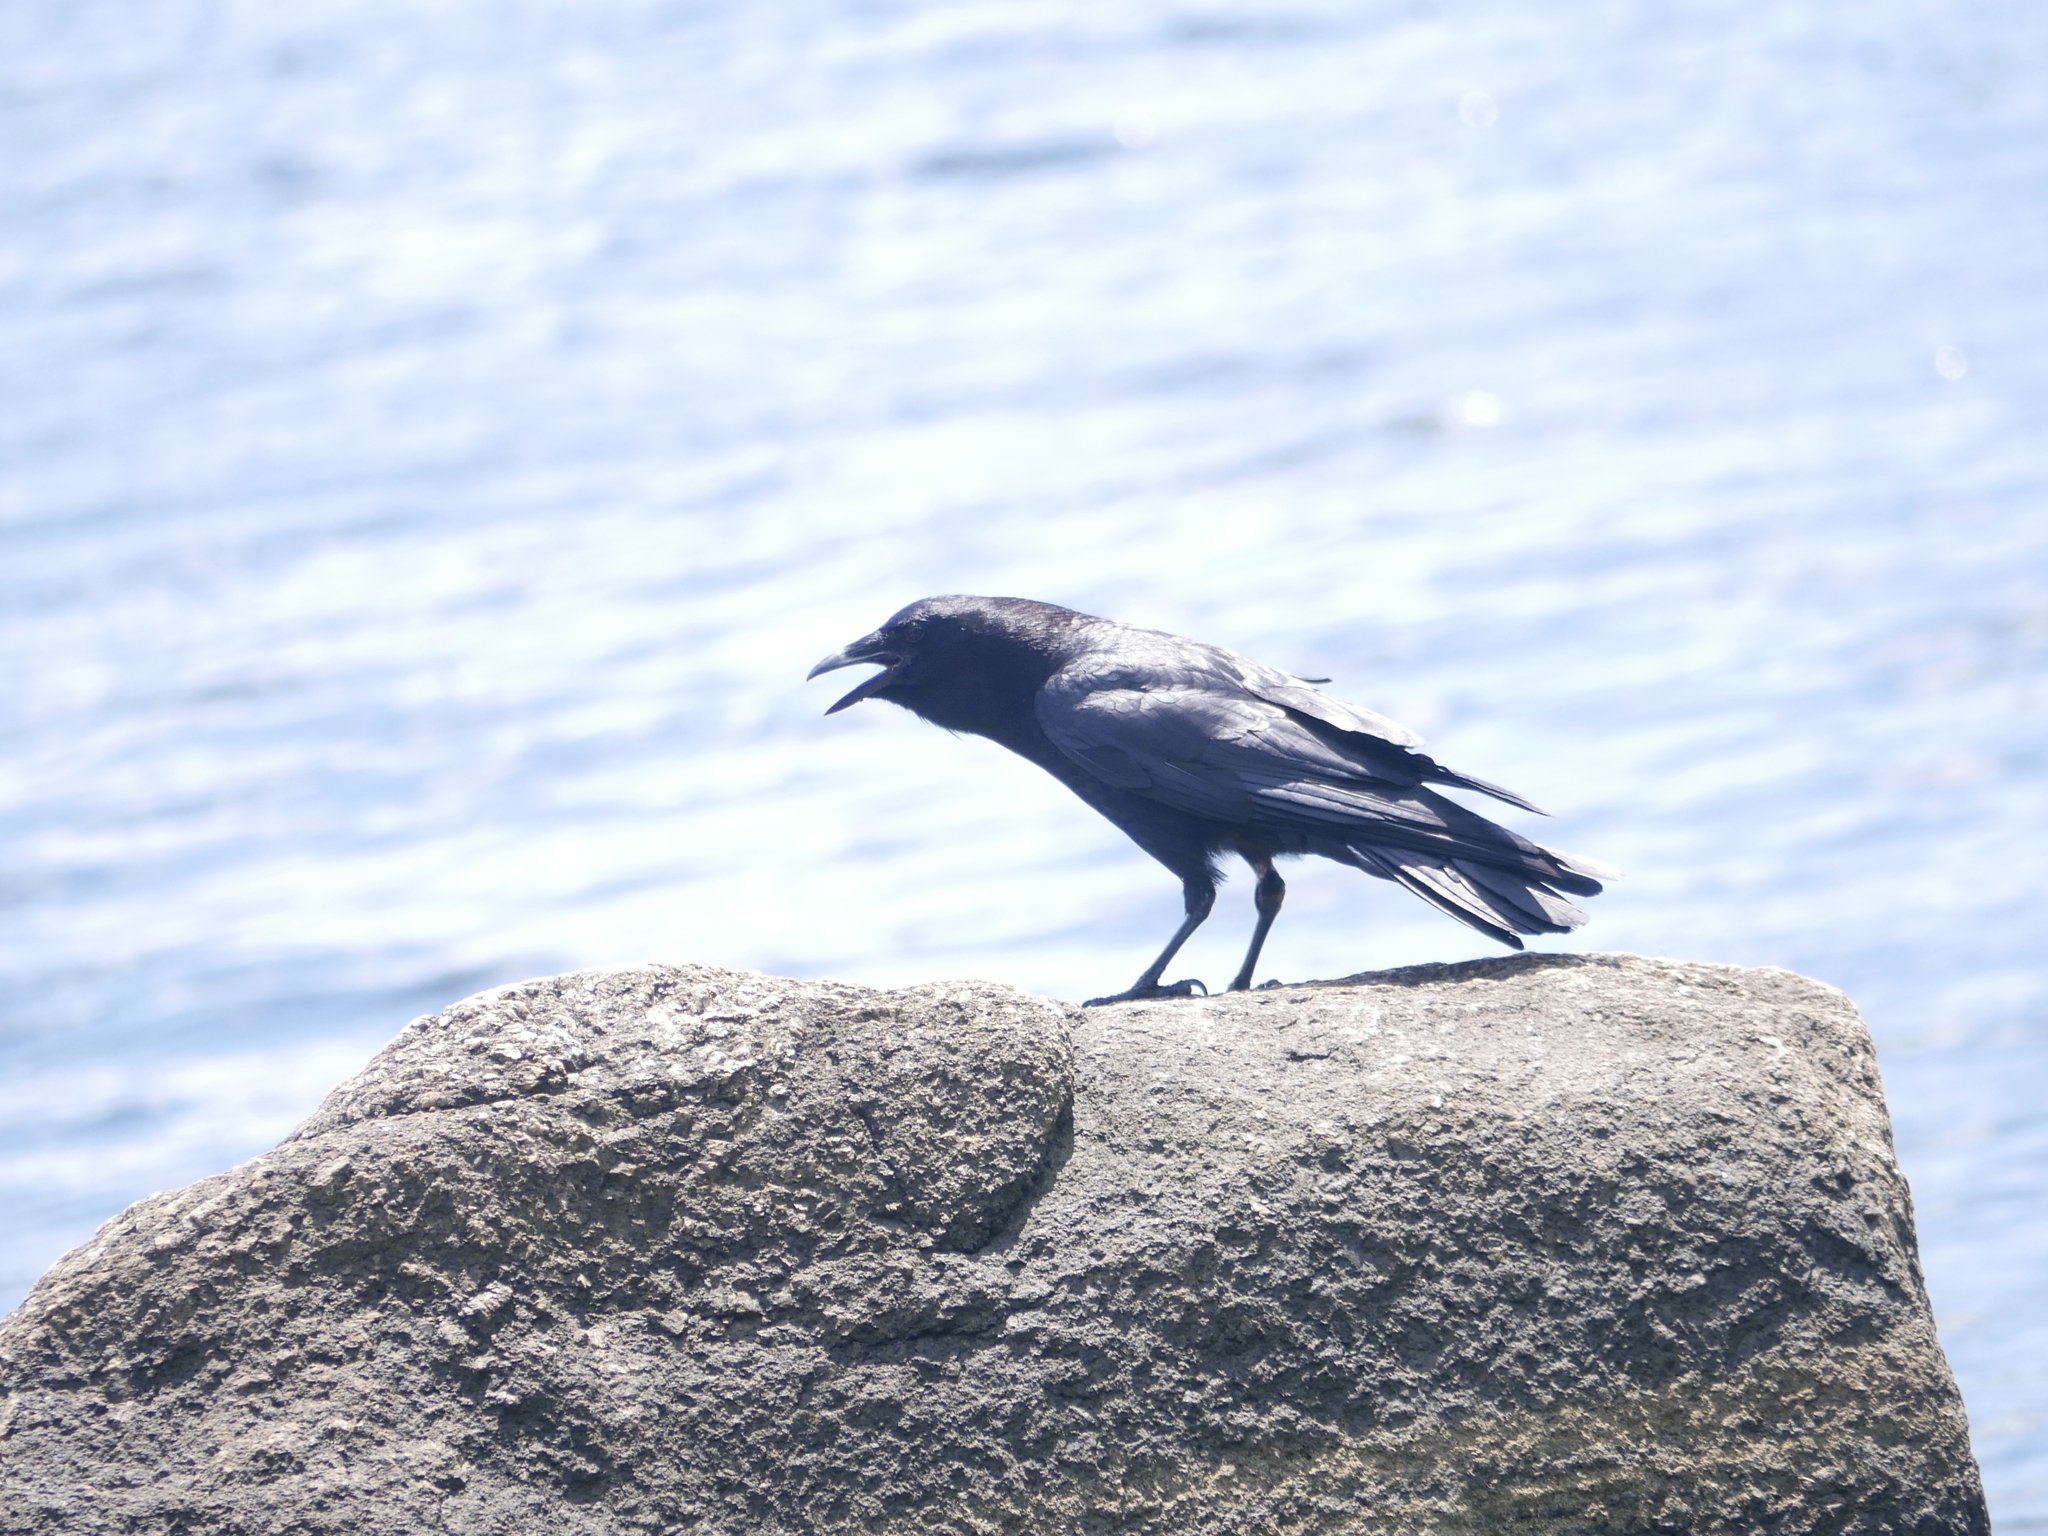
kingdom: Animalia
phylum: Chordata
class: Aves
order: Passeriformes
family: Corvidae
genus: Corvus
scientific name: Corvus brachyrhynchos
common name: American crow
